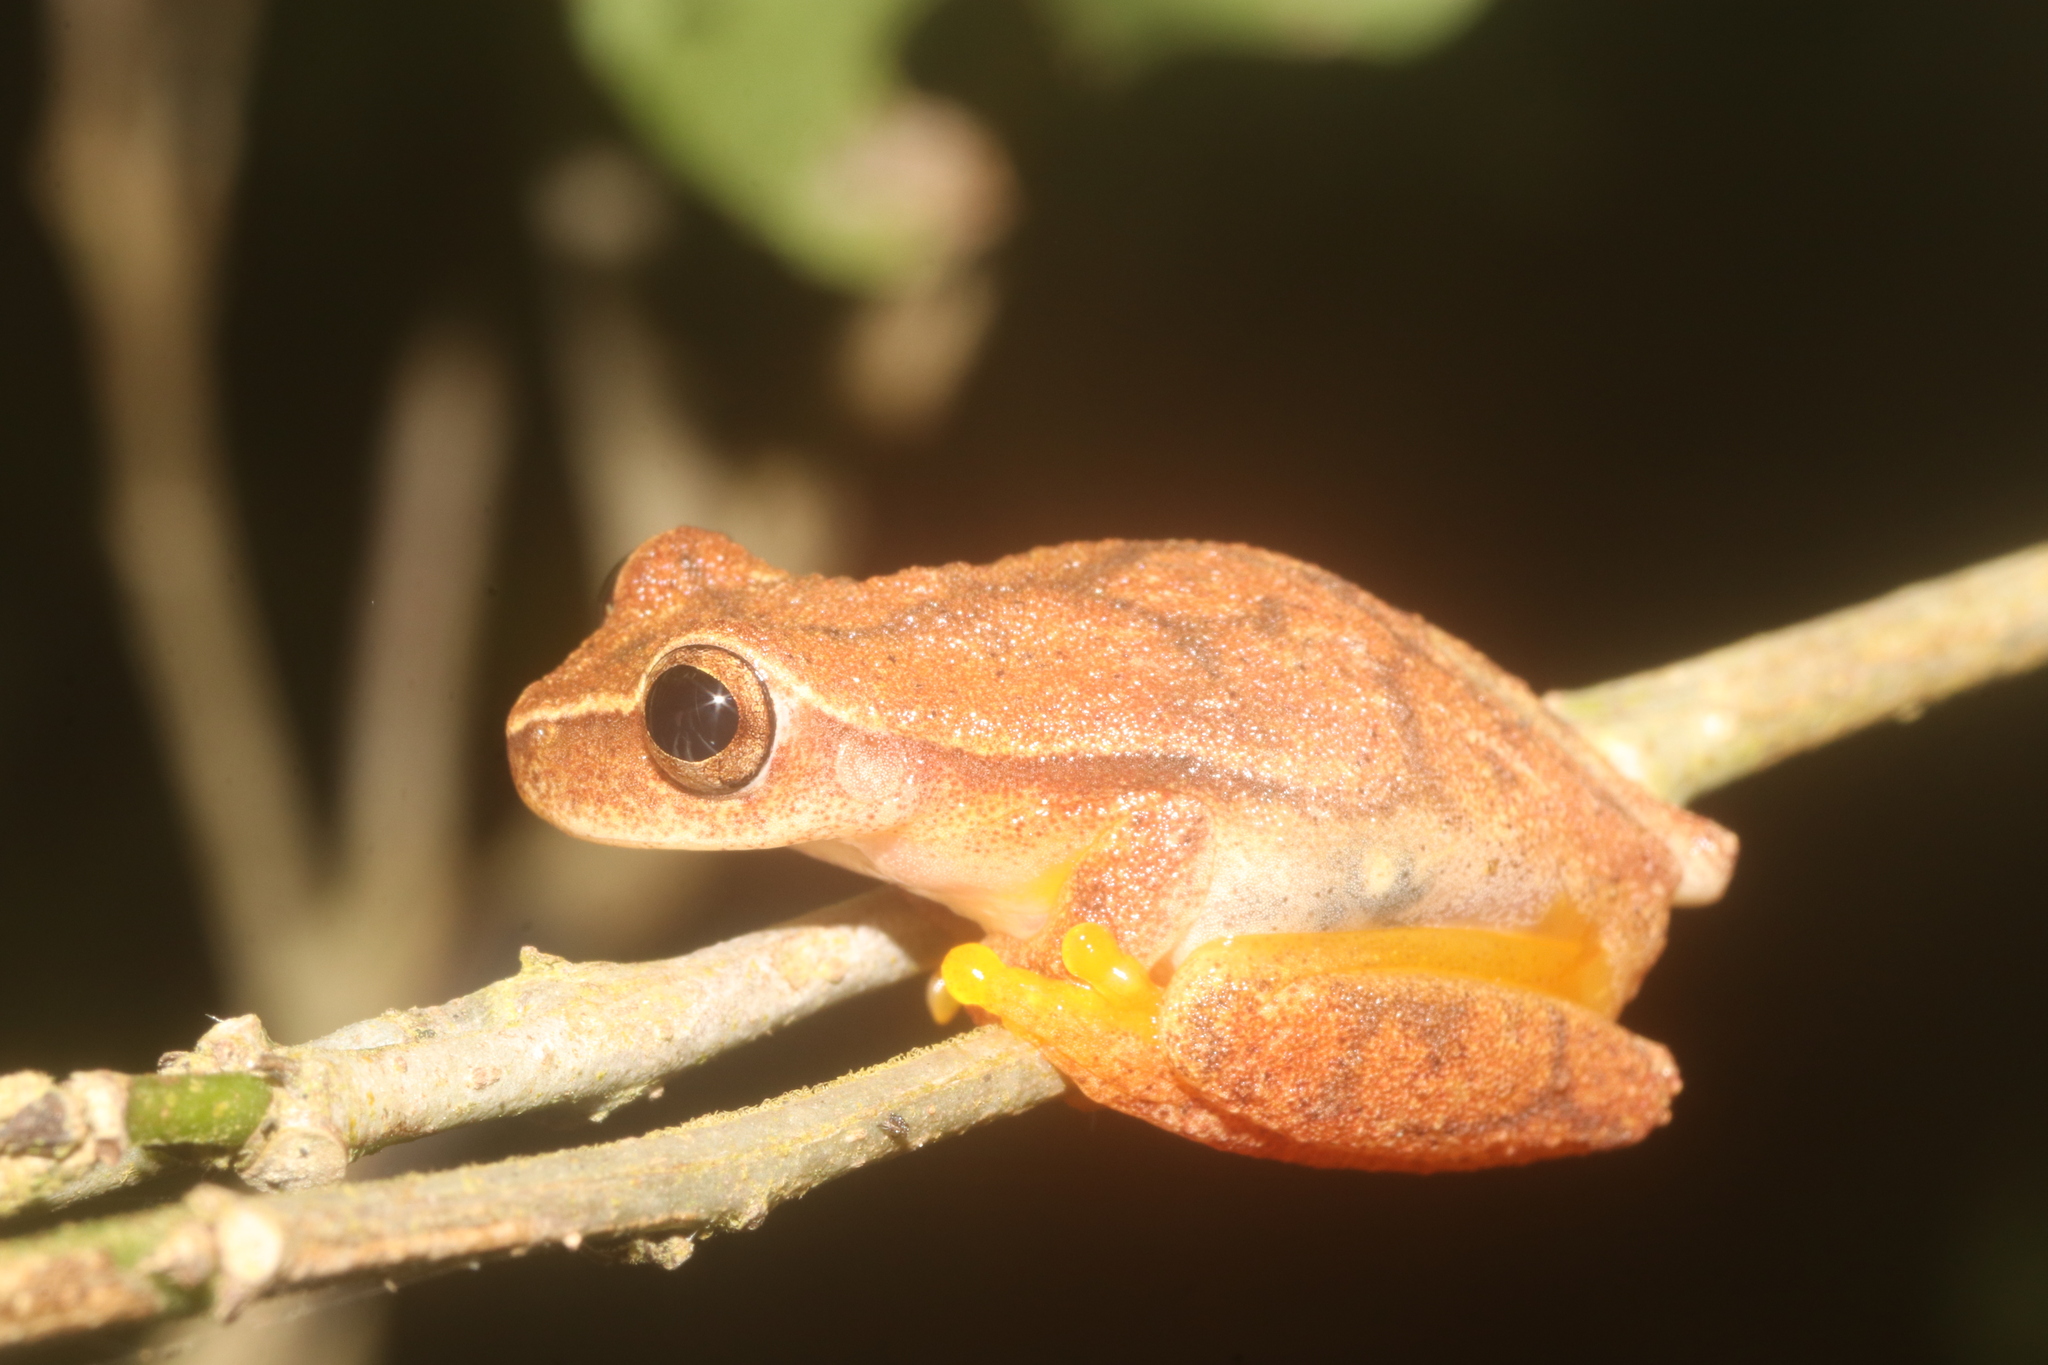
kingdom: Animalia
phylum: Chordata
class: Amphibia
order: Anura
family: Hylidae
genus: Dendropsophus
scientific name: Dendropsophus microcephalus
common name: Small-headed treefrog
